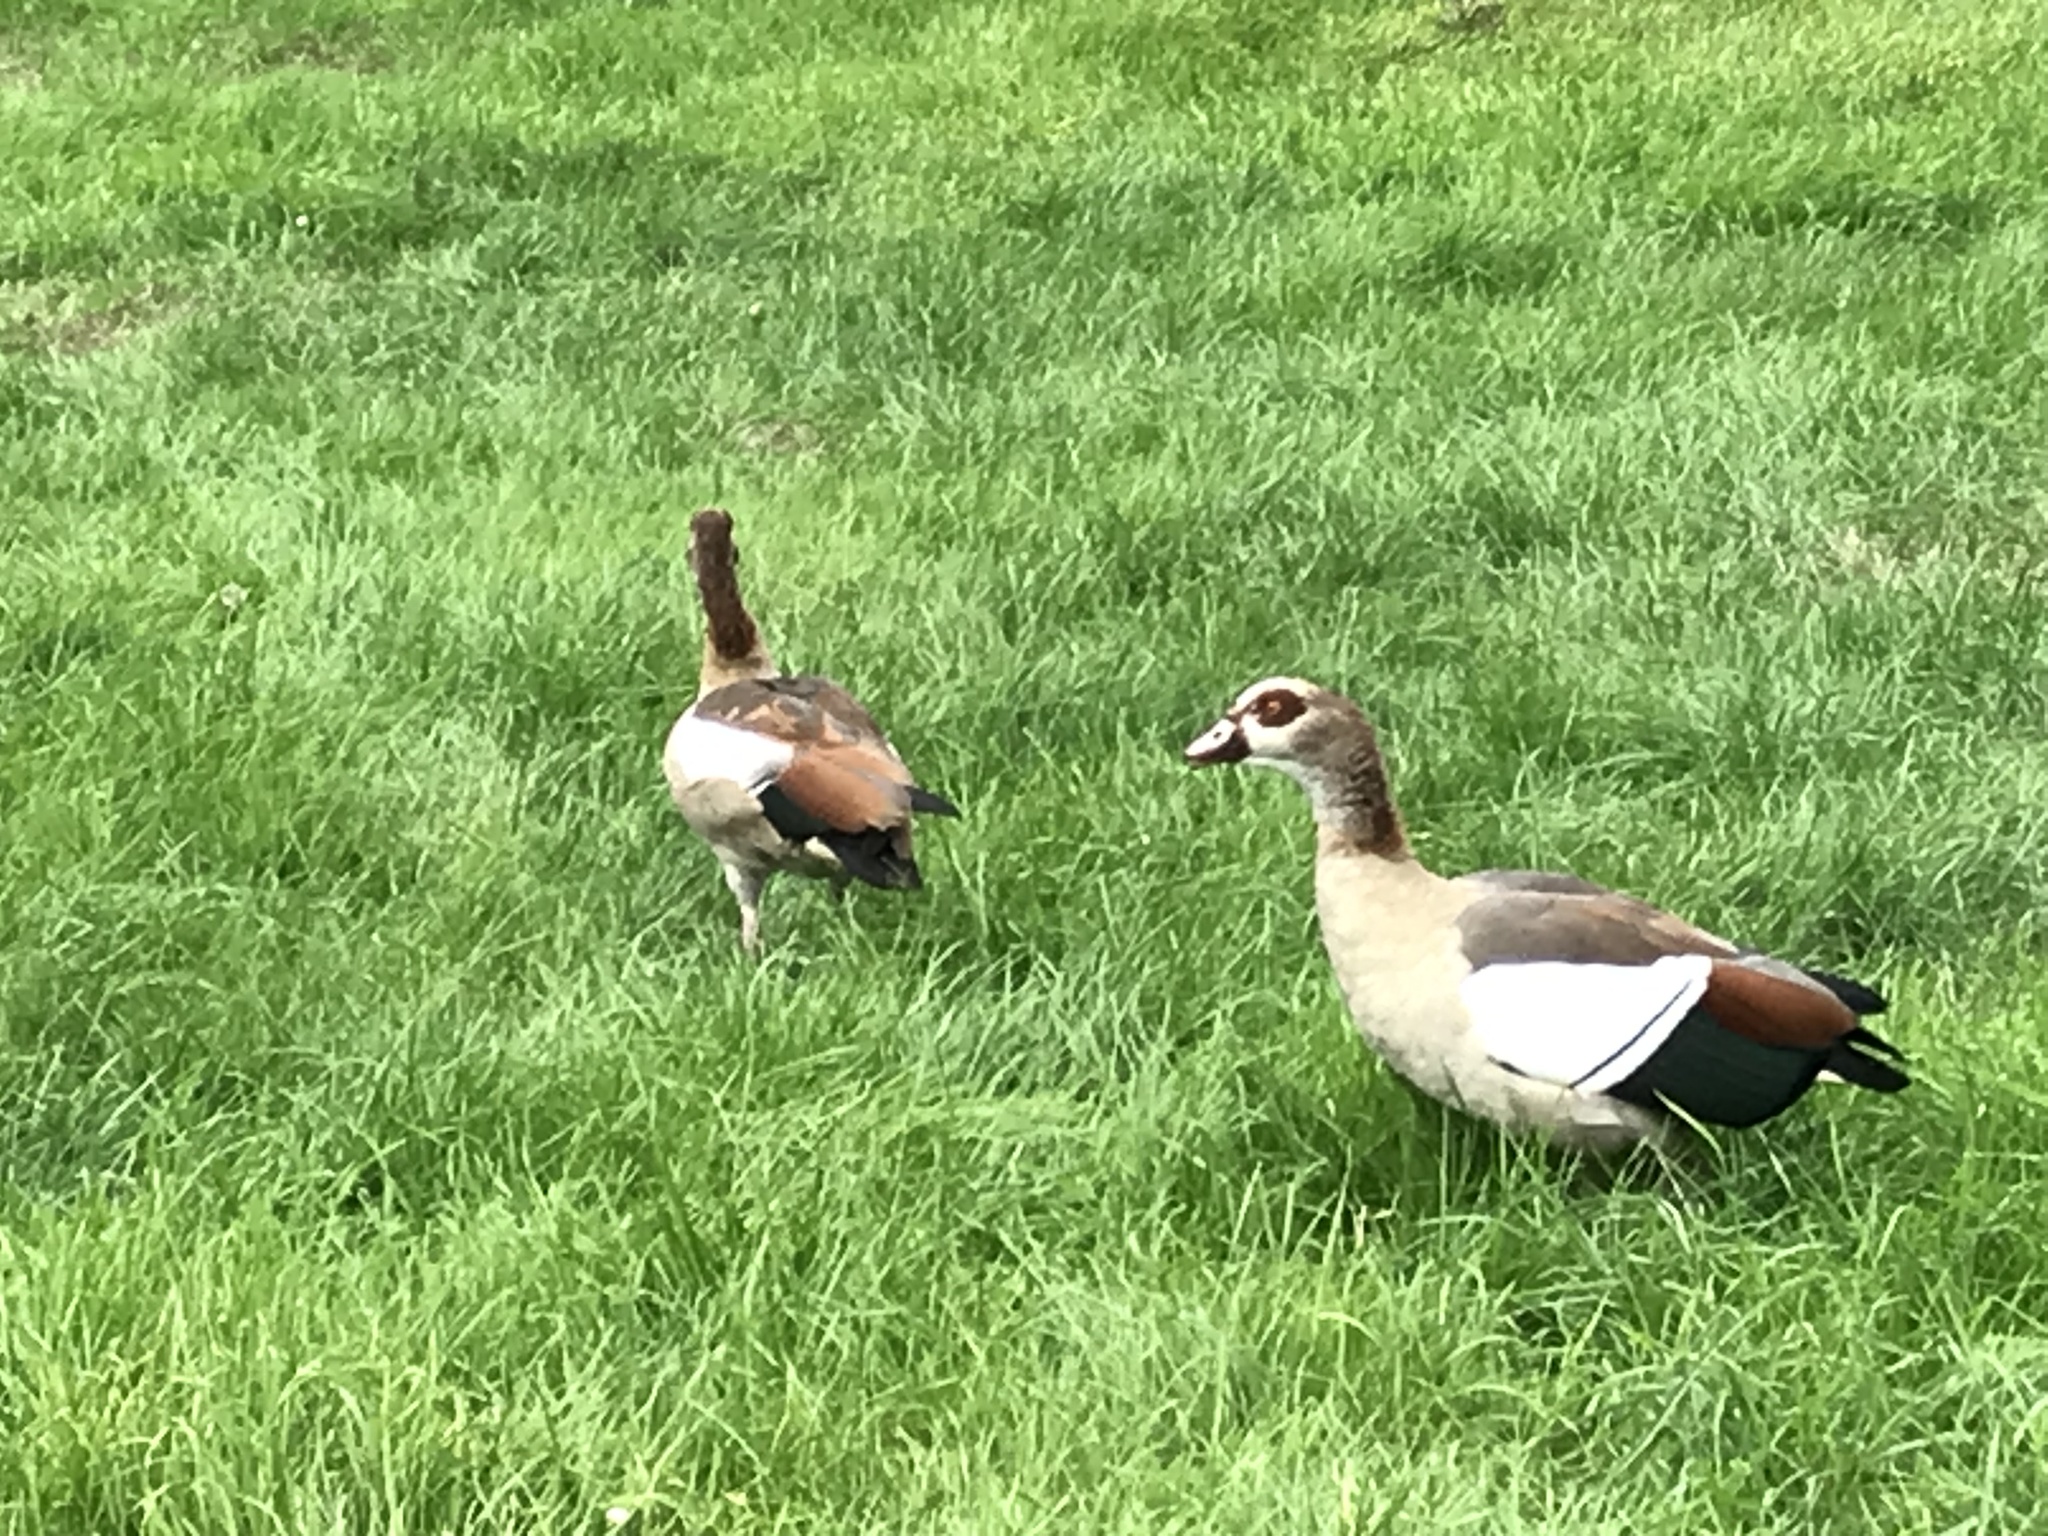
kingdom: Animalia
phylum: Chordata
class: Aves
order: Anseriformes
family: Anatidae
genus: Alopochen
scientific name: Alopochen aegyptiaca
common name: Egyptian goose
